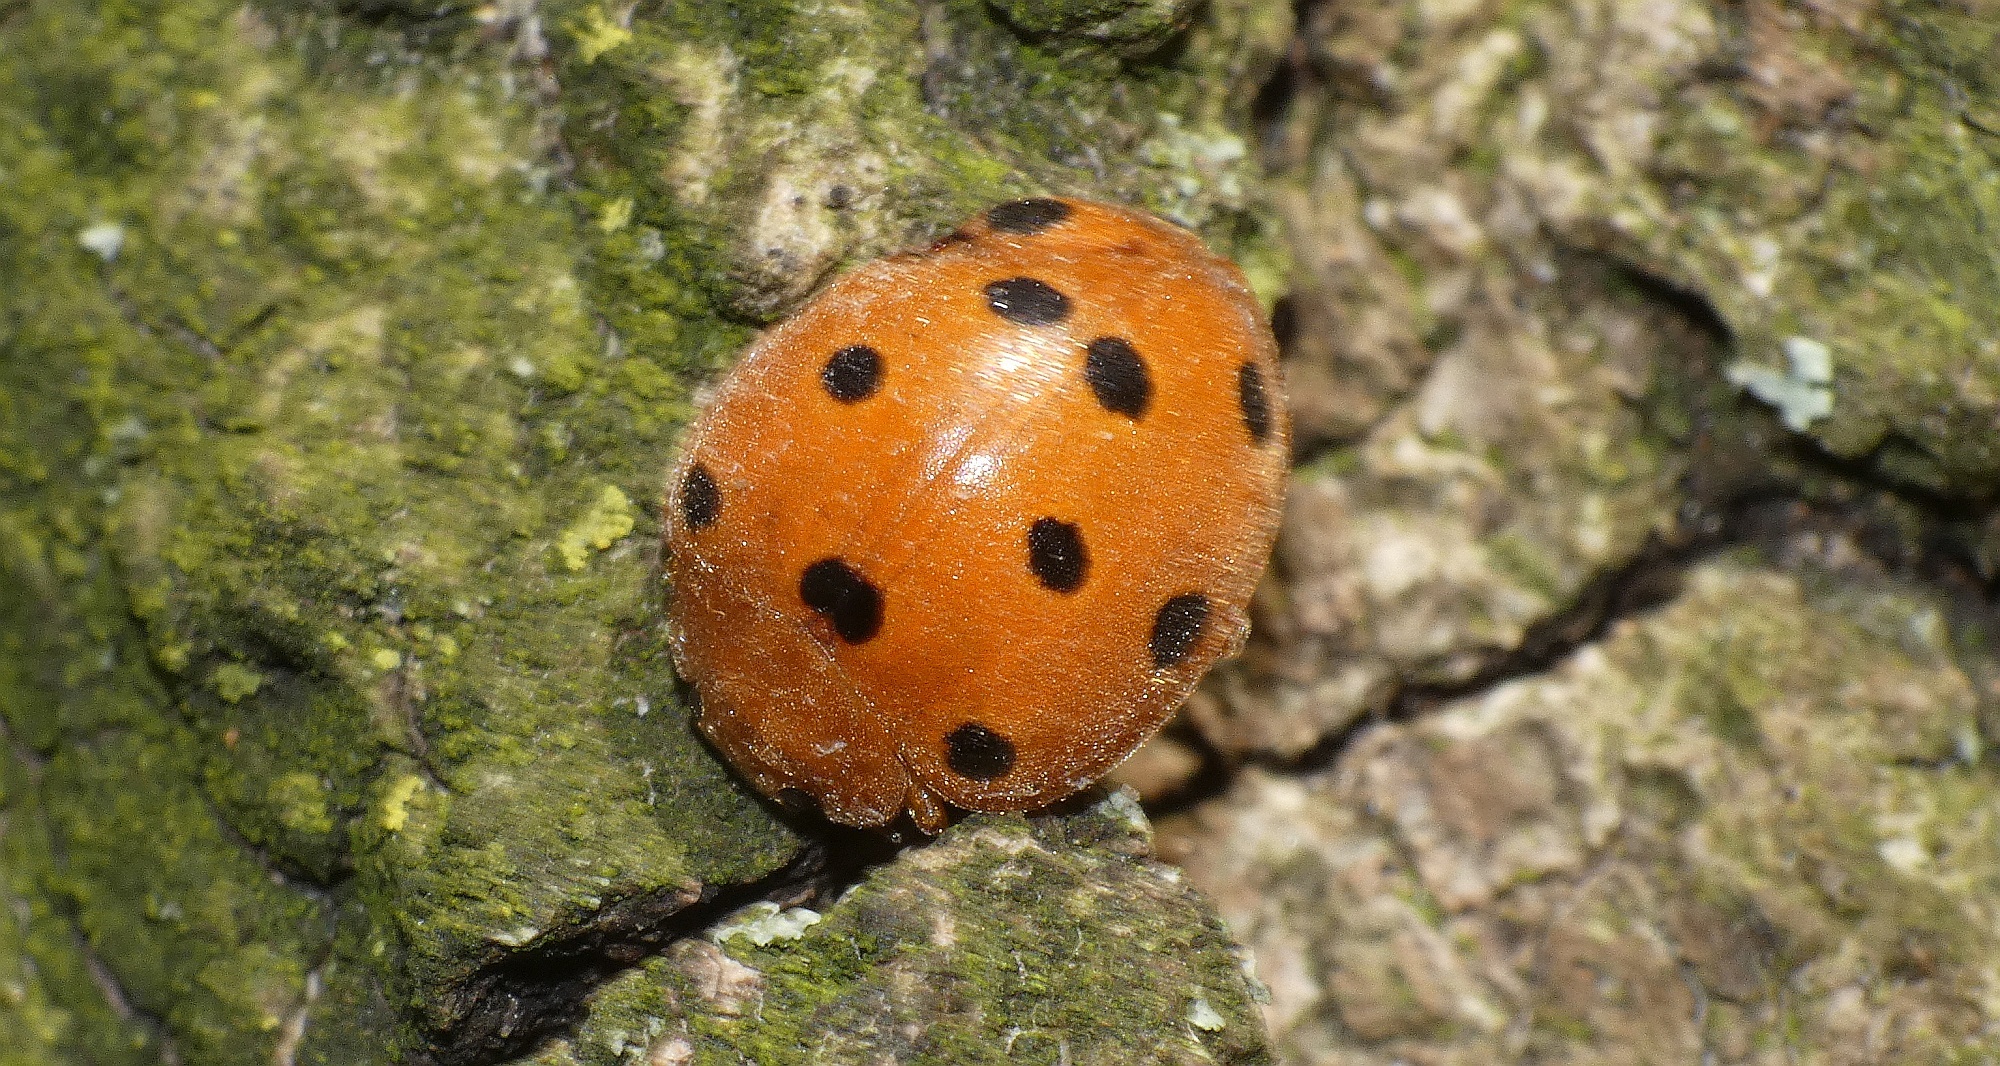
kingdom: Animalia
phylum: Arthropoda
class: Insecta
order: Coleoptera
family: Coccinellidae
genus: Henosepilachna
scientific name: Henosepilachna argus
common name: Bryony ladybird
